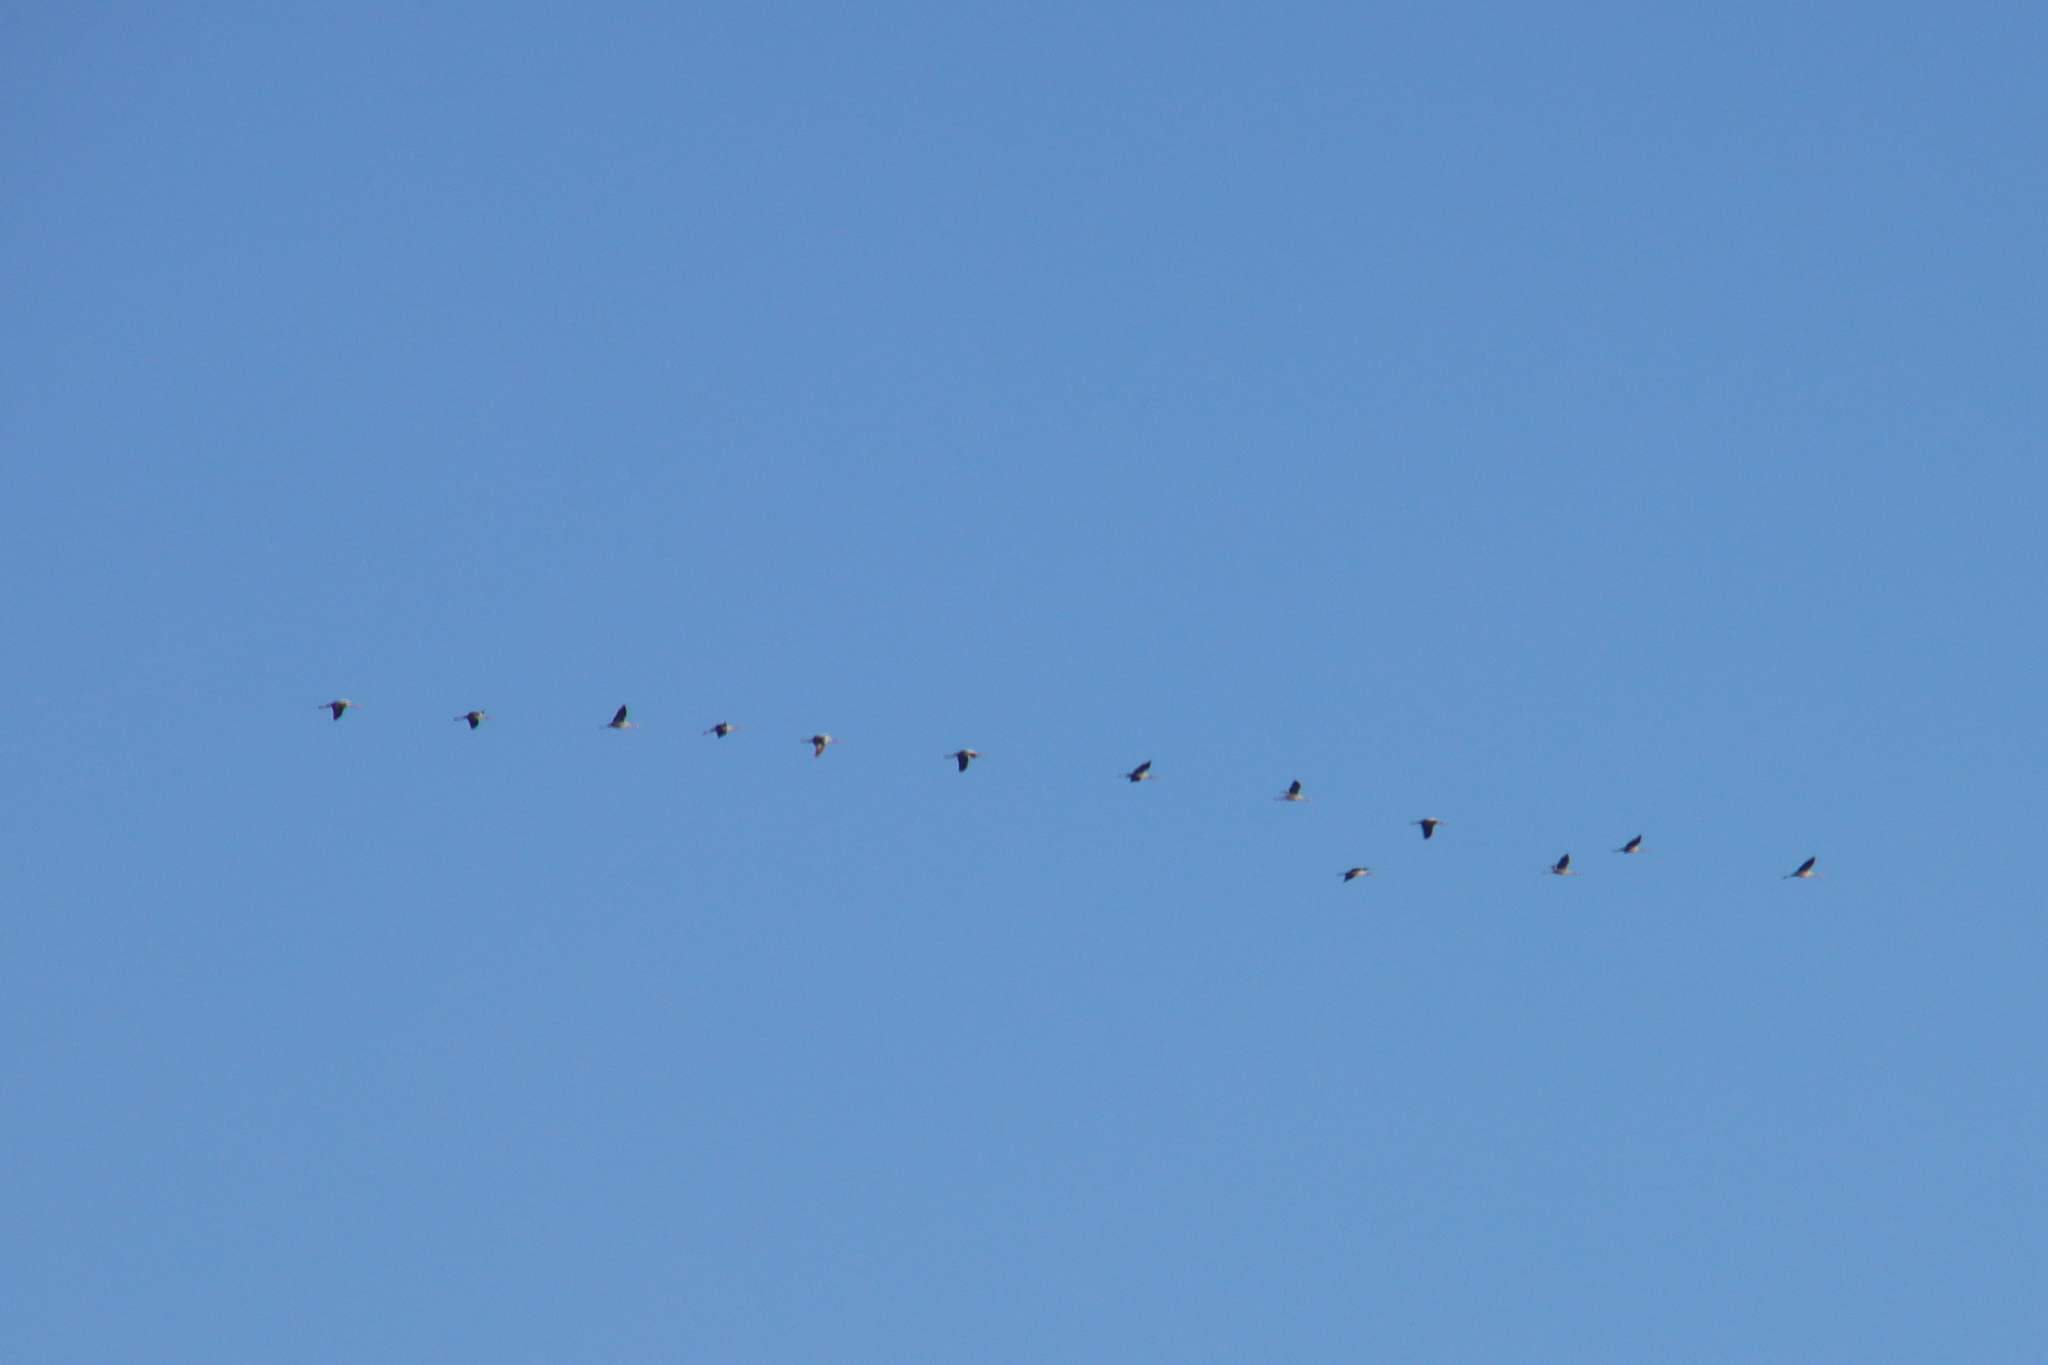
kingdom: Animalia
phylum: Chordata
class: Aves
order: Gruiformes
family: Gruidae
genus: Grus
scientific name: Grus grus
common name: Common crane
